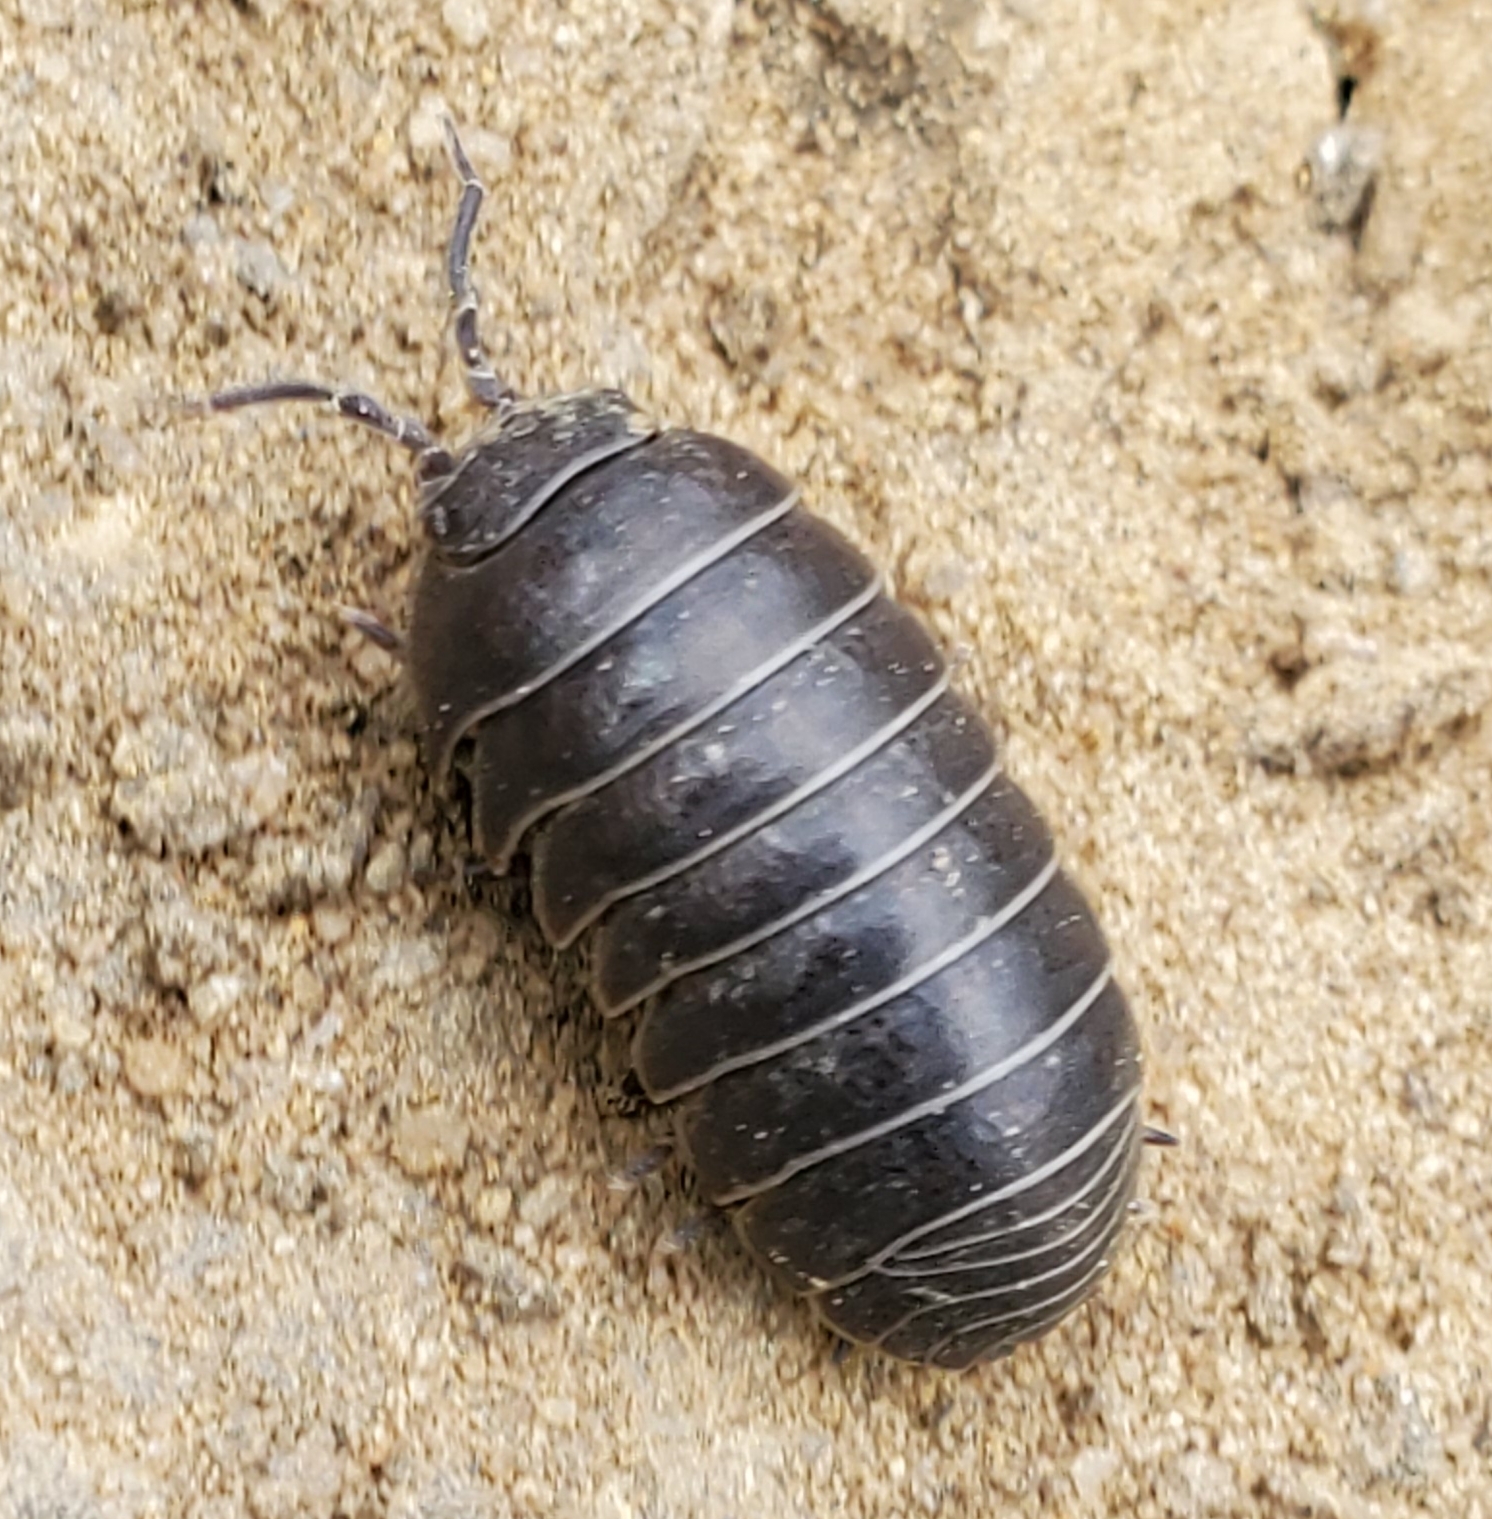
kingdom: Animalia
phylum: Arthropoda
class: Malacostraca
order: Isopoda
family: Armadillidiidae
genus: Armadillidium
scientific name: Armadillidium vulgare
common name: Common pill woodlouse
